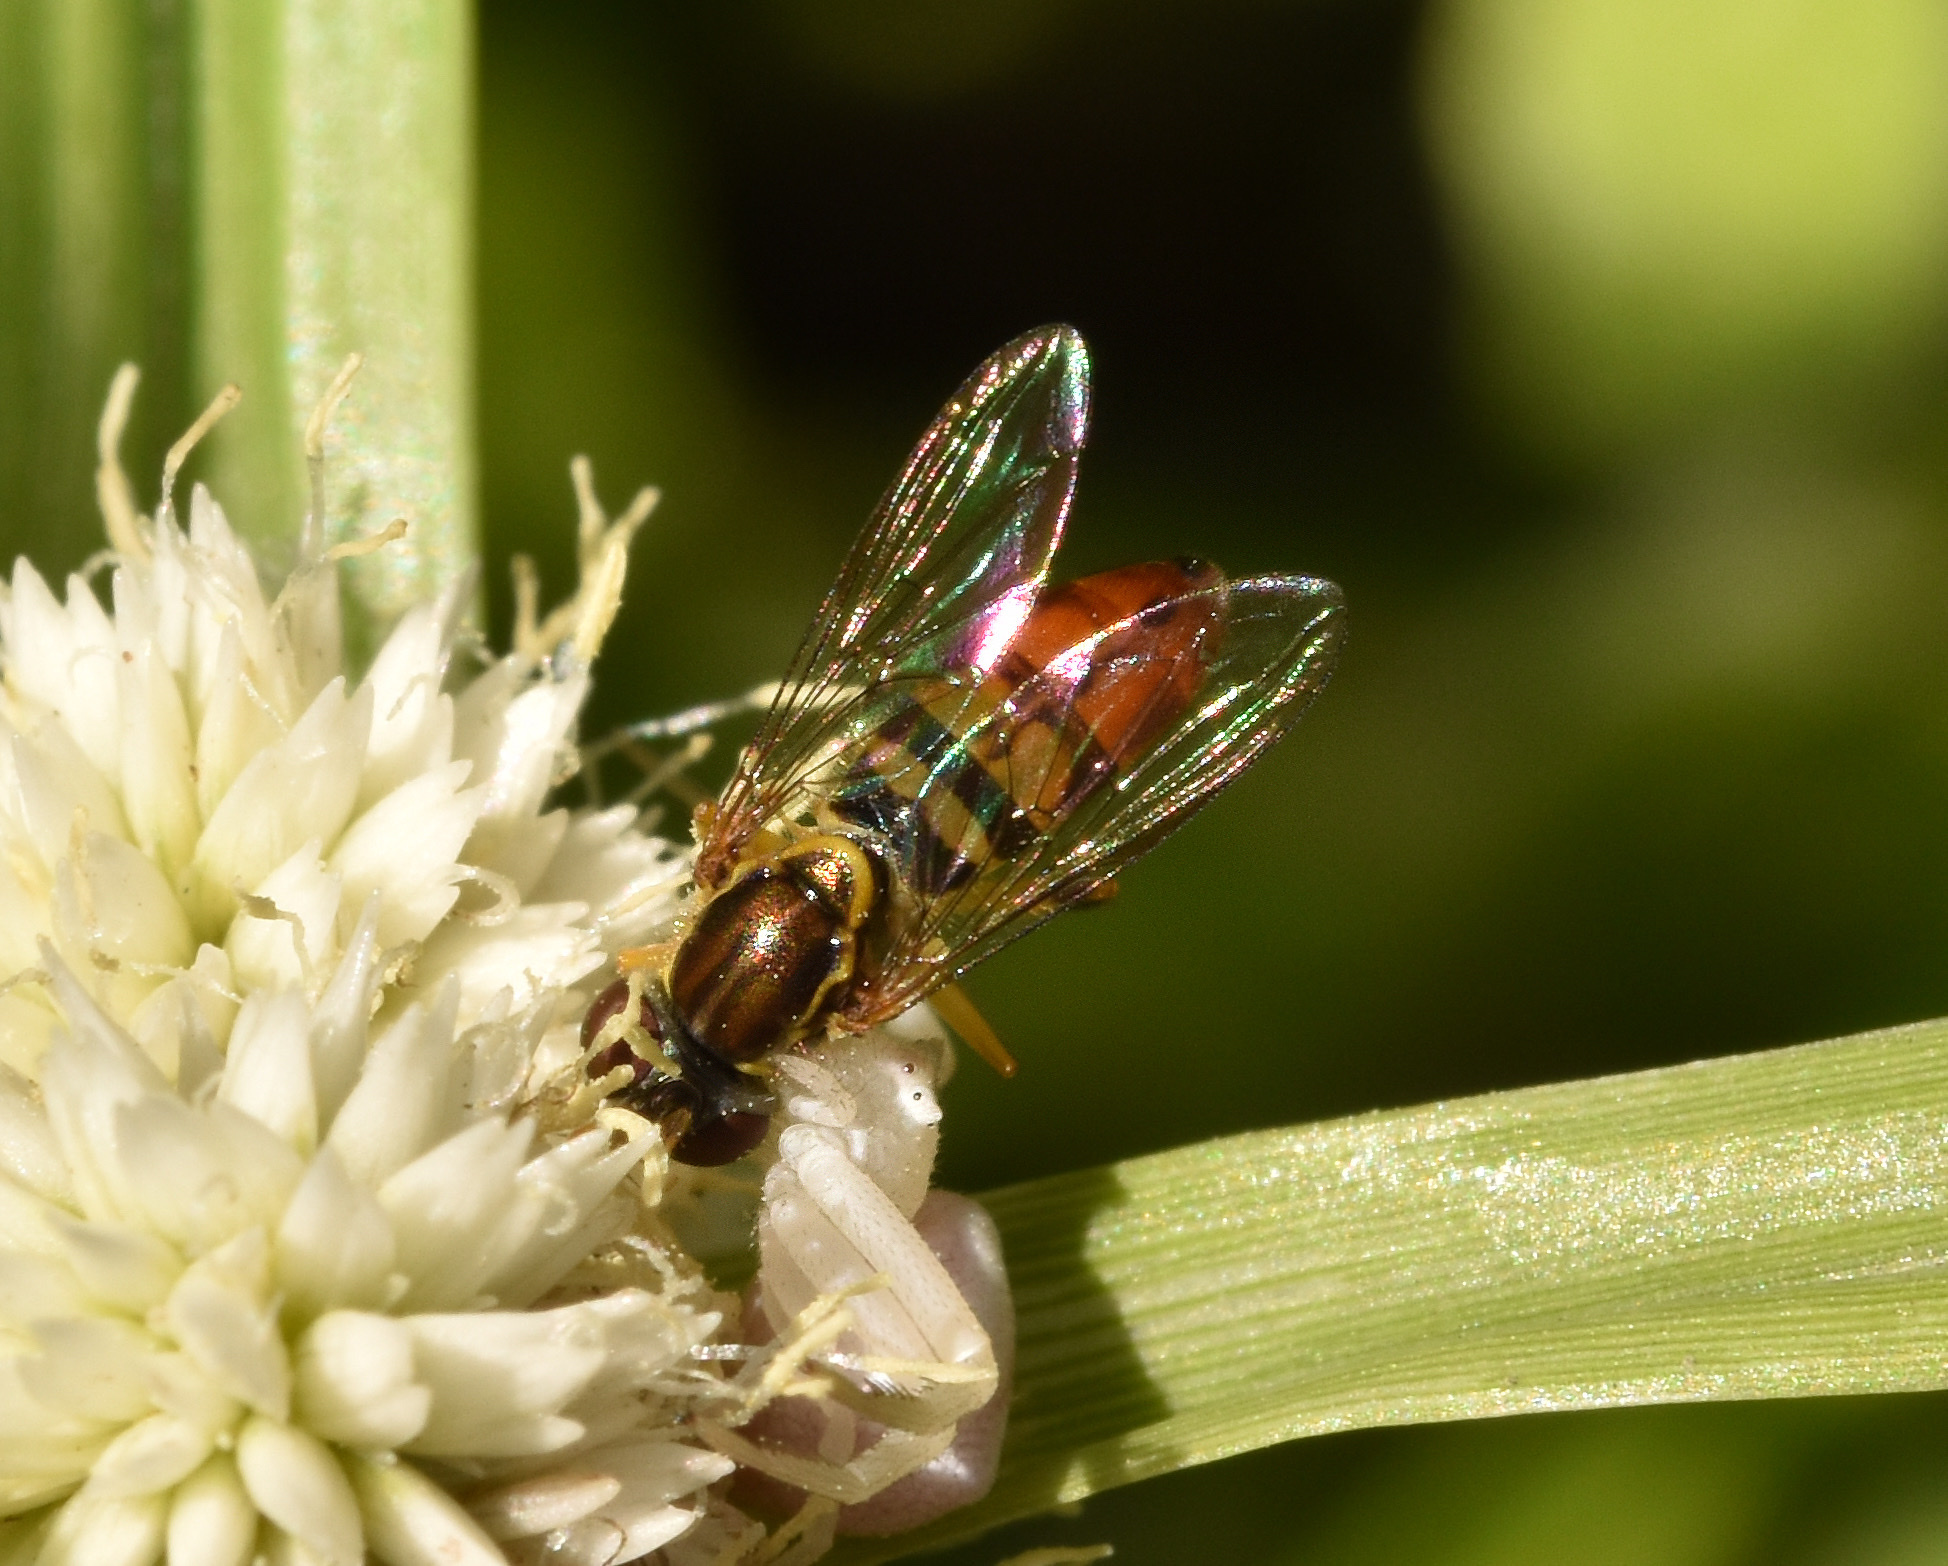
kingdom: Animalia
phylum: Arthropoda
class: Insecta
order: Diptera
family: Syrphidae
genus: Toxomerus
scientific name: Toxomerus floralis
